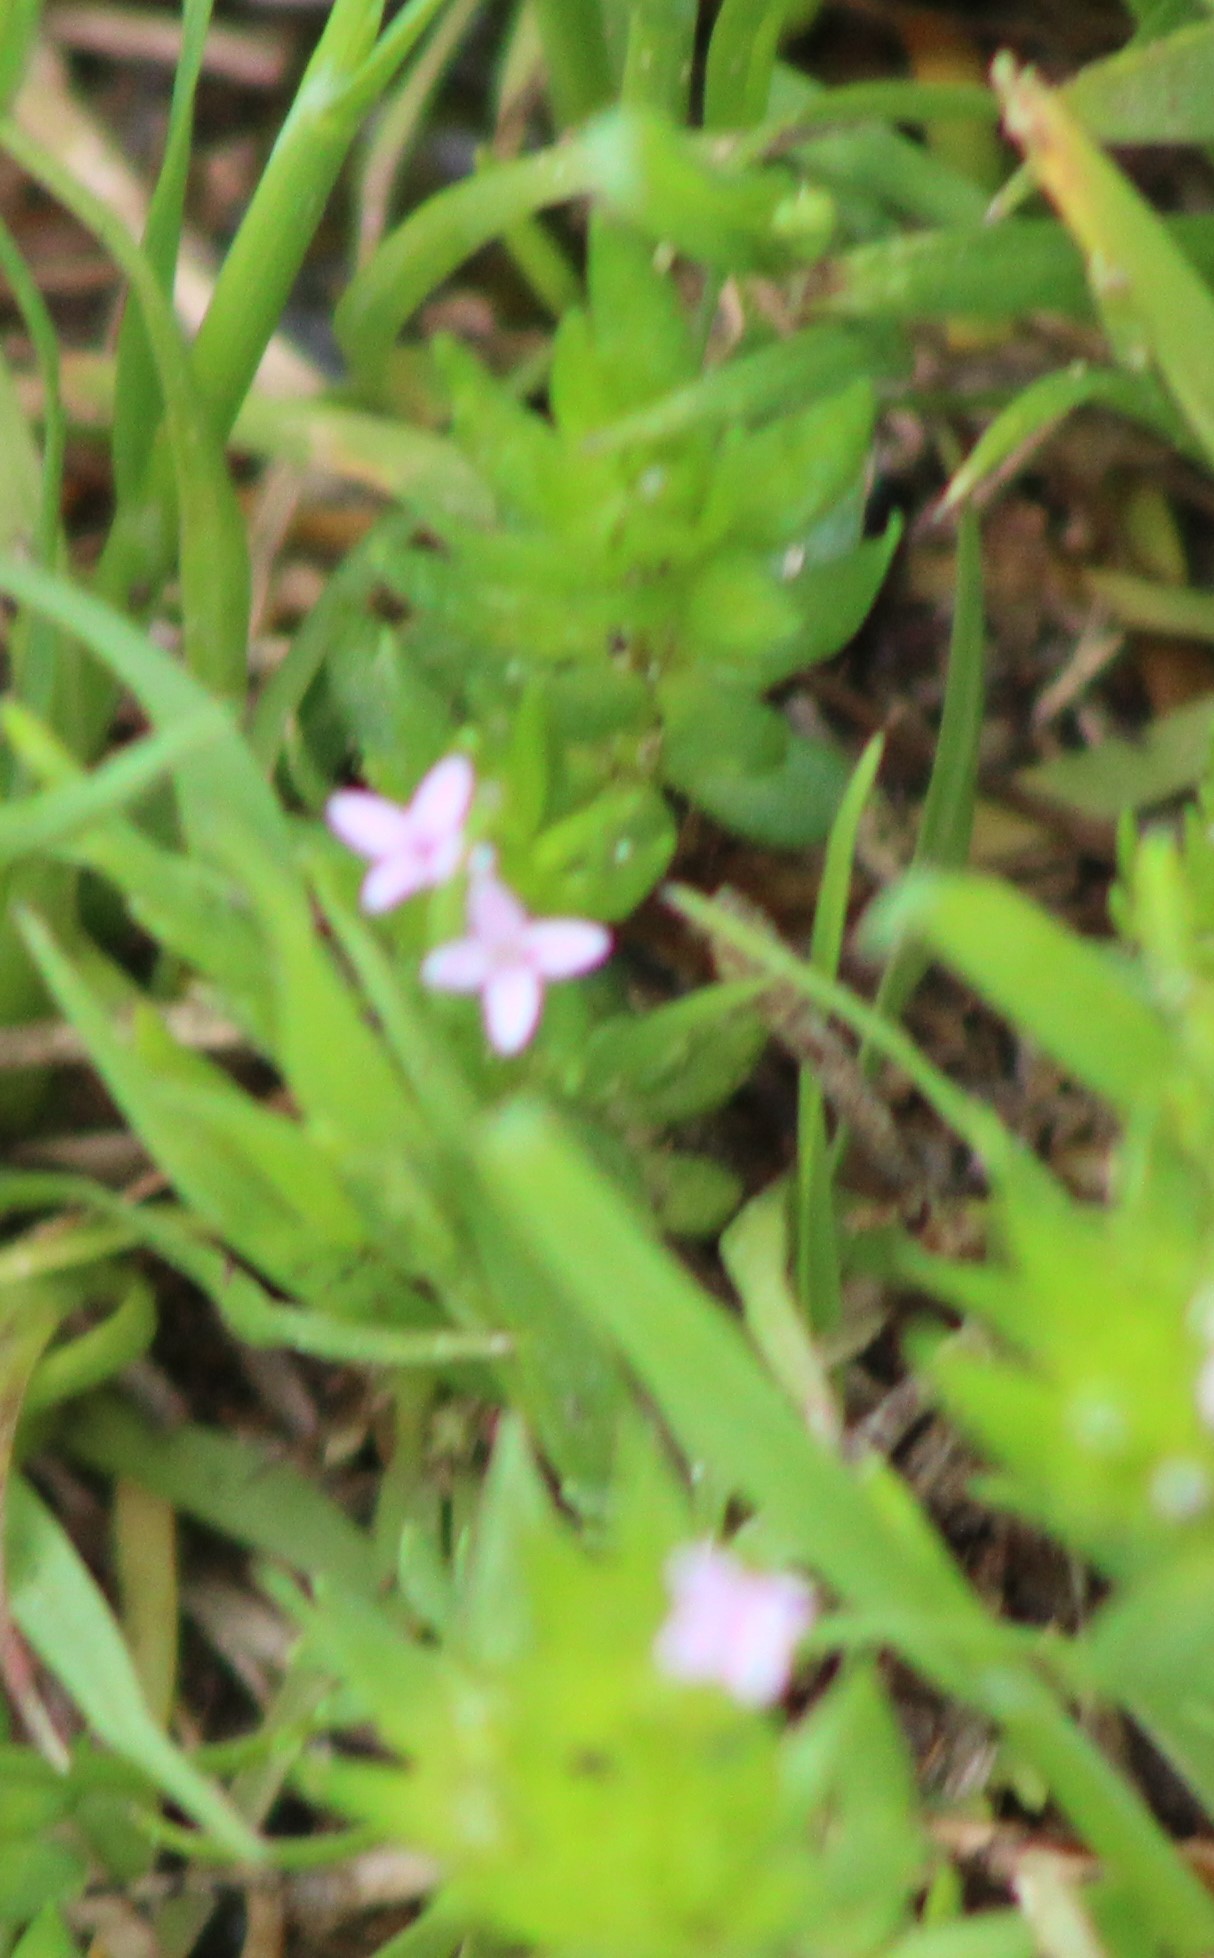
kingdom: Plantae
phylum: Tracheophyta
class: Magnoliopsida
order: Gentianales
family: Rubiaceae
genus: Sherardia
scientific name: Sherardia arvensis
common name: Field madder
